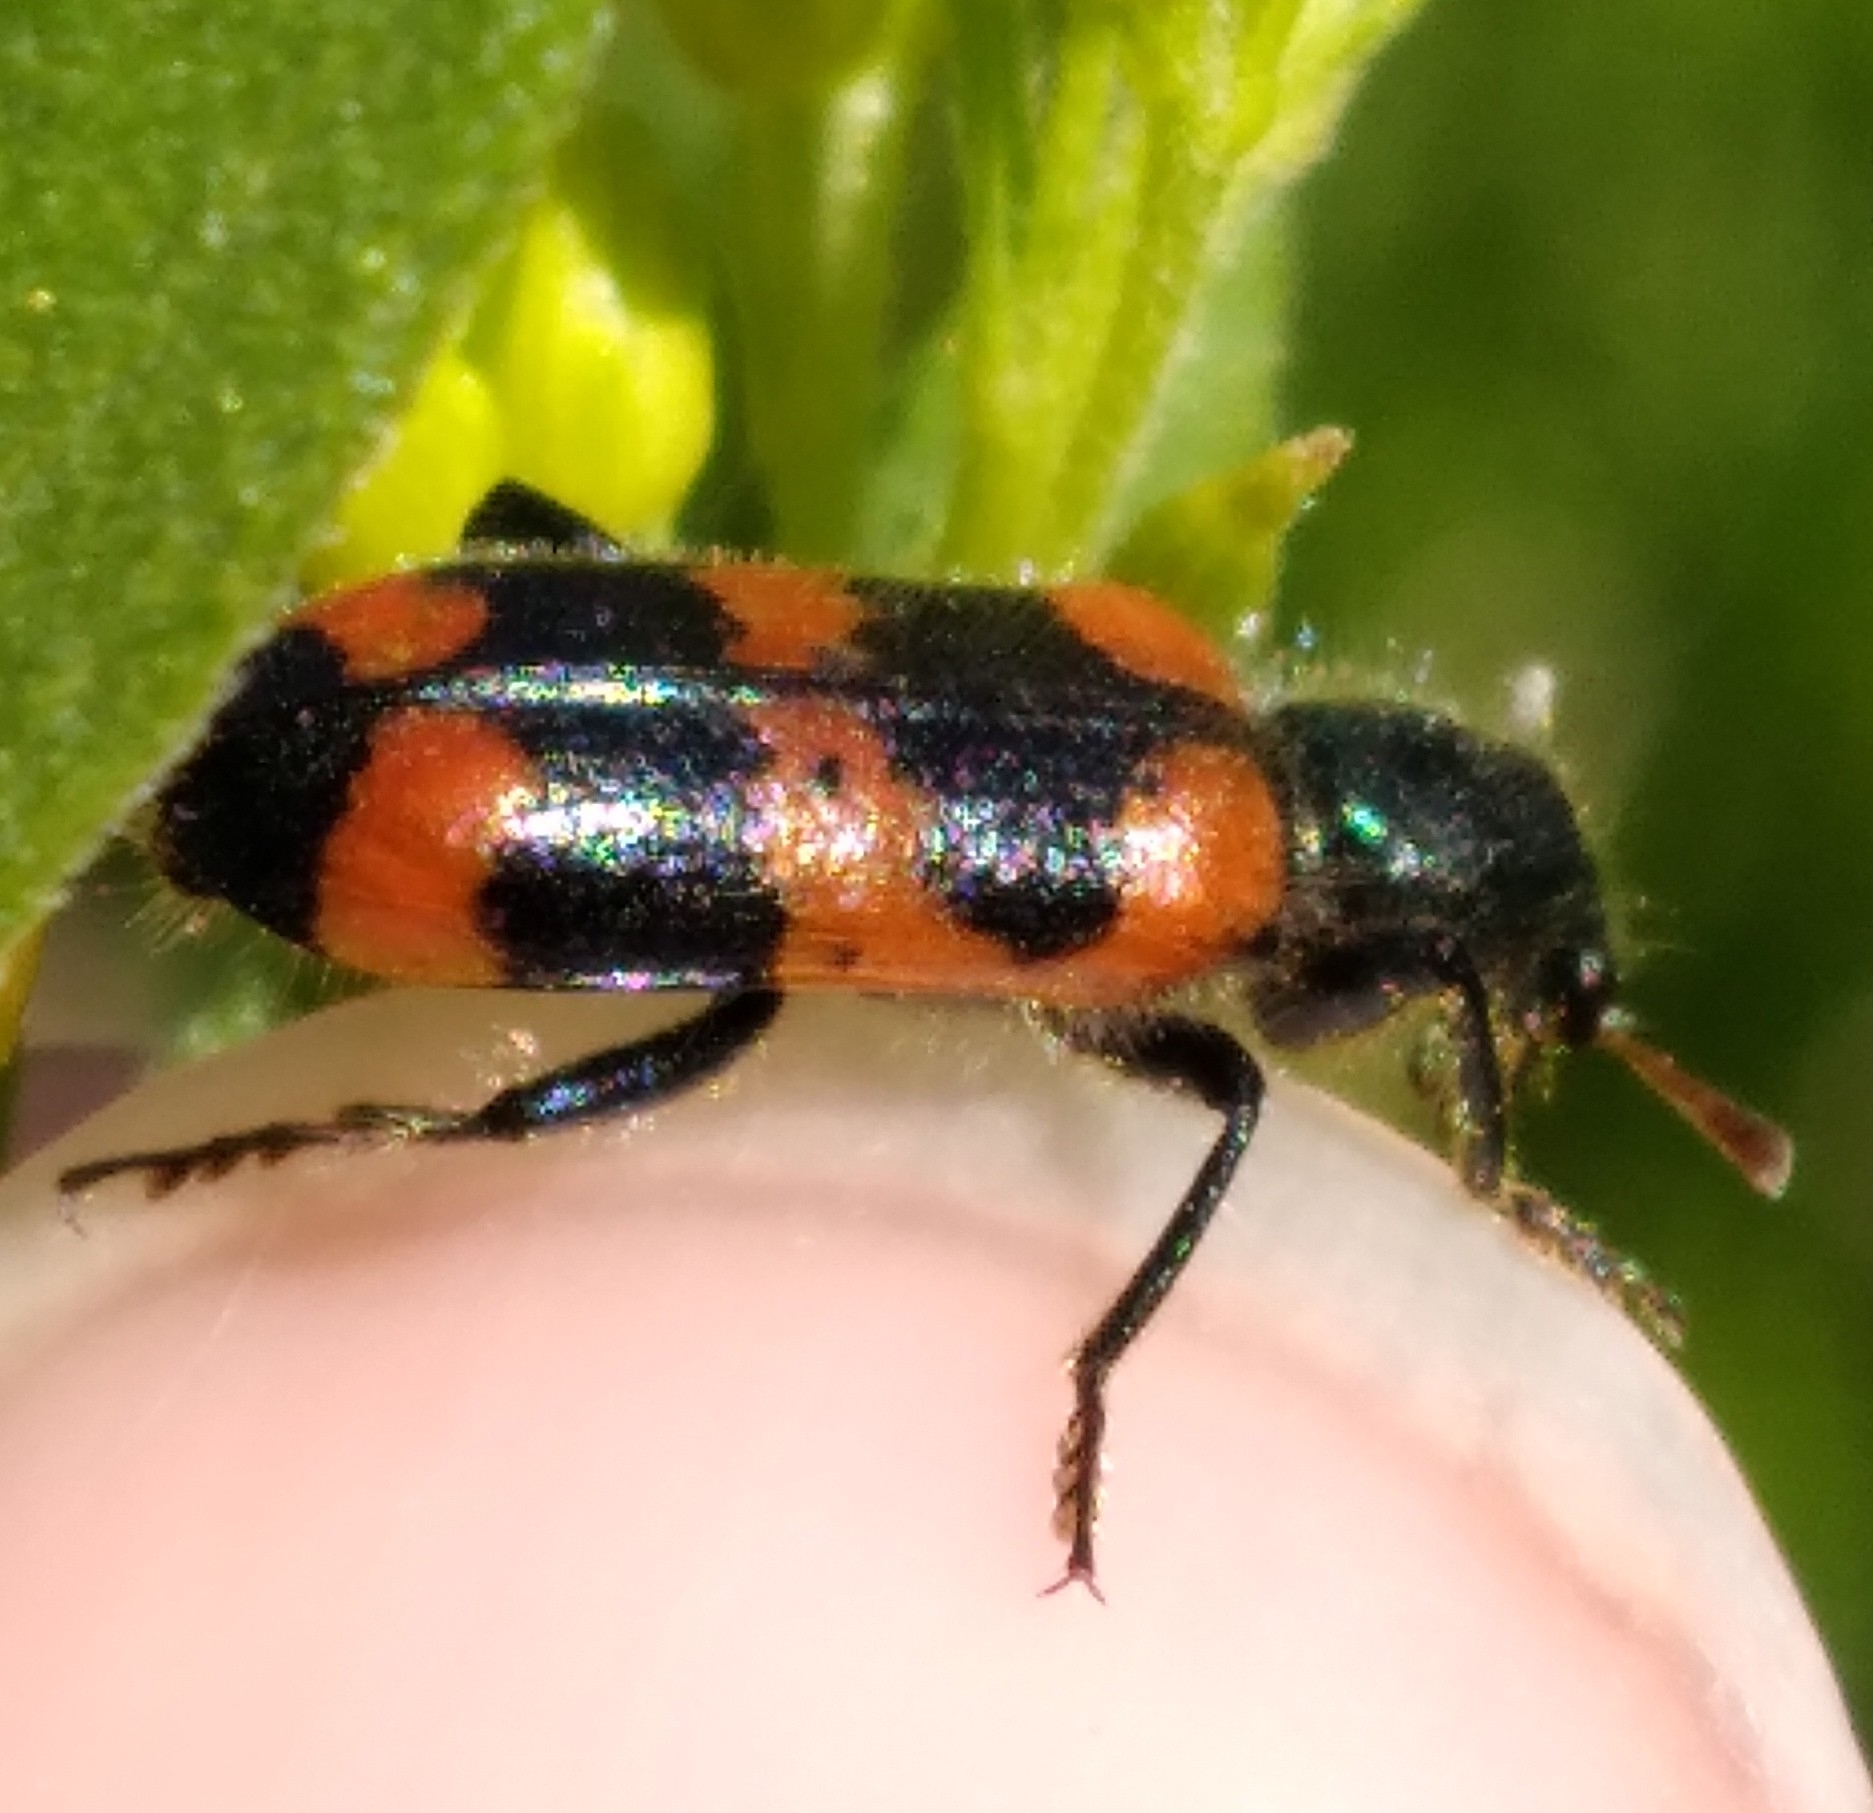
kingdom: Animalia
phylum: Arthropoda
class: Insecta
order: Coleoptera
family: Cleridae
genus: Trichodes
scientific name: Trichodes nutalli
